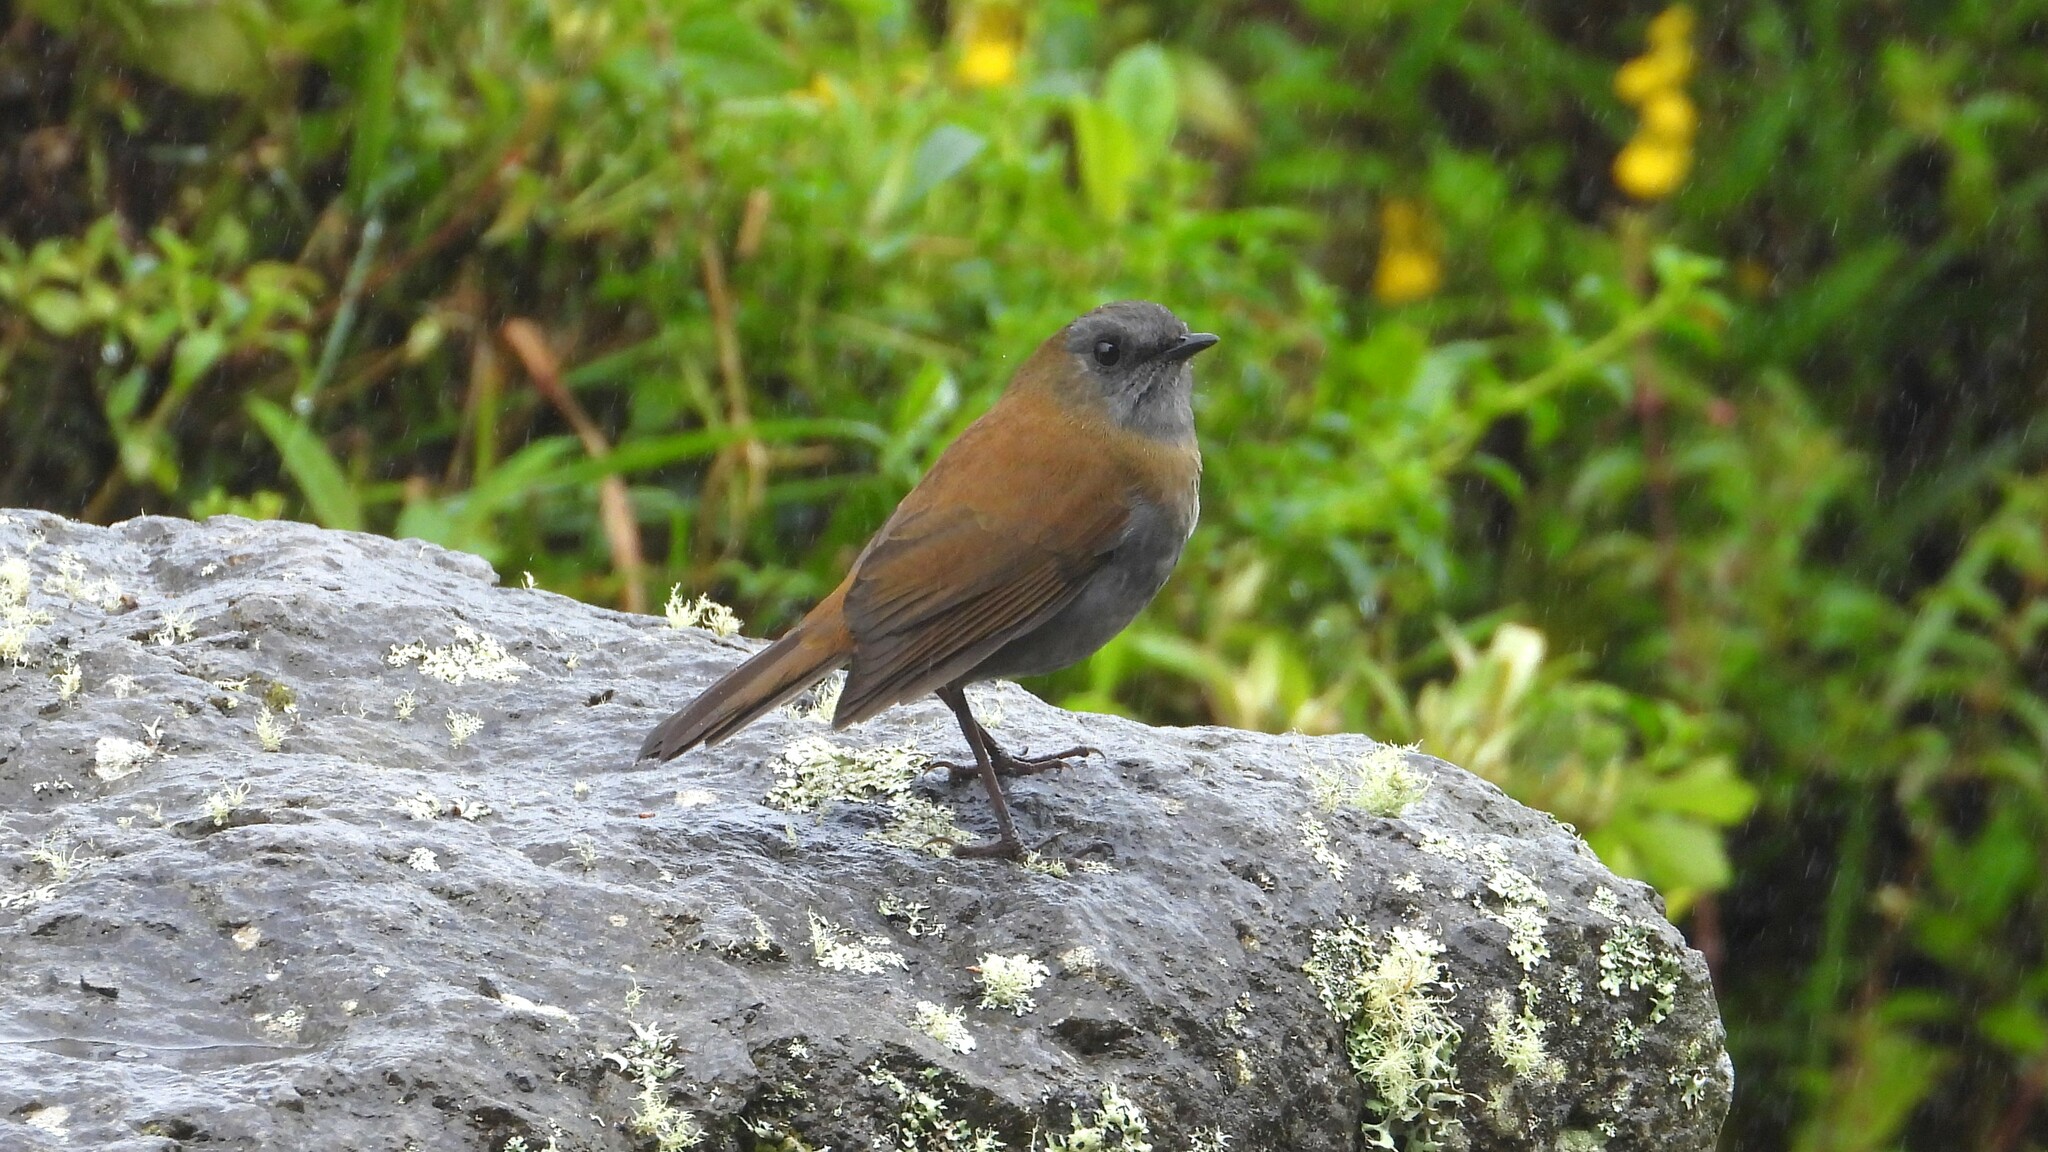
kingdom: Animalia
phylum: Chordata
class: Aves
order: Passeriformes
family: Turdidae
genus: Catharus
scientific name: Catharus gracilirostris
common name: Black-billed nightingale-thrush
